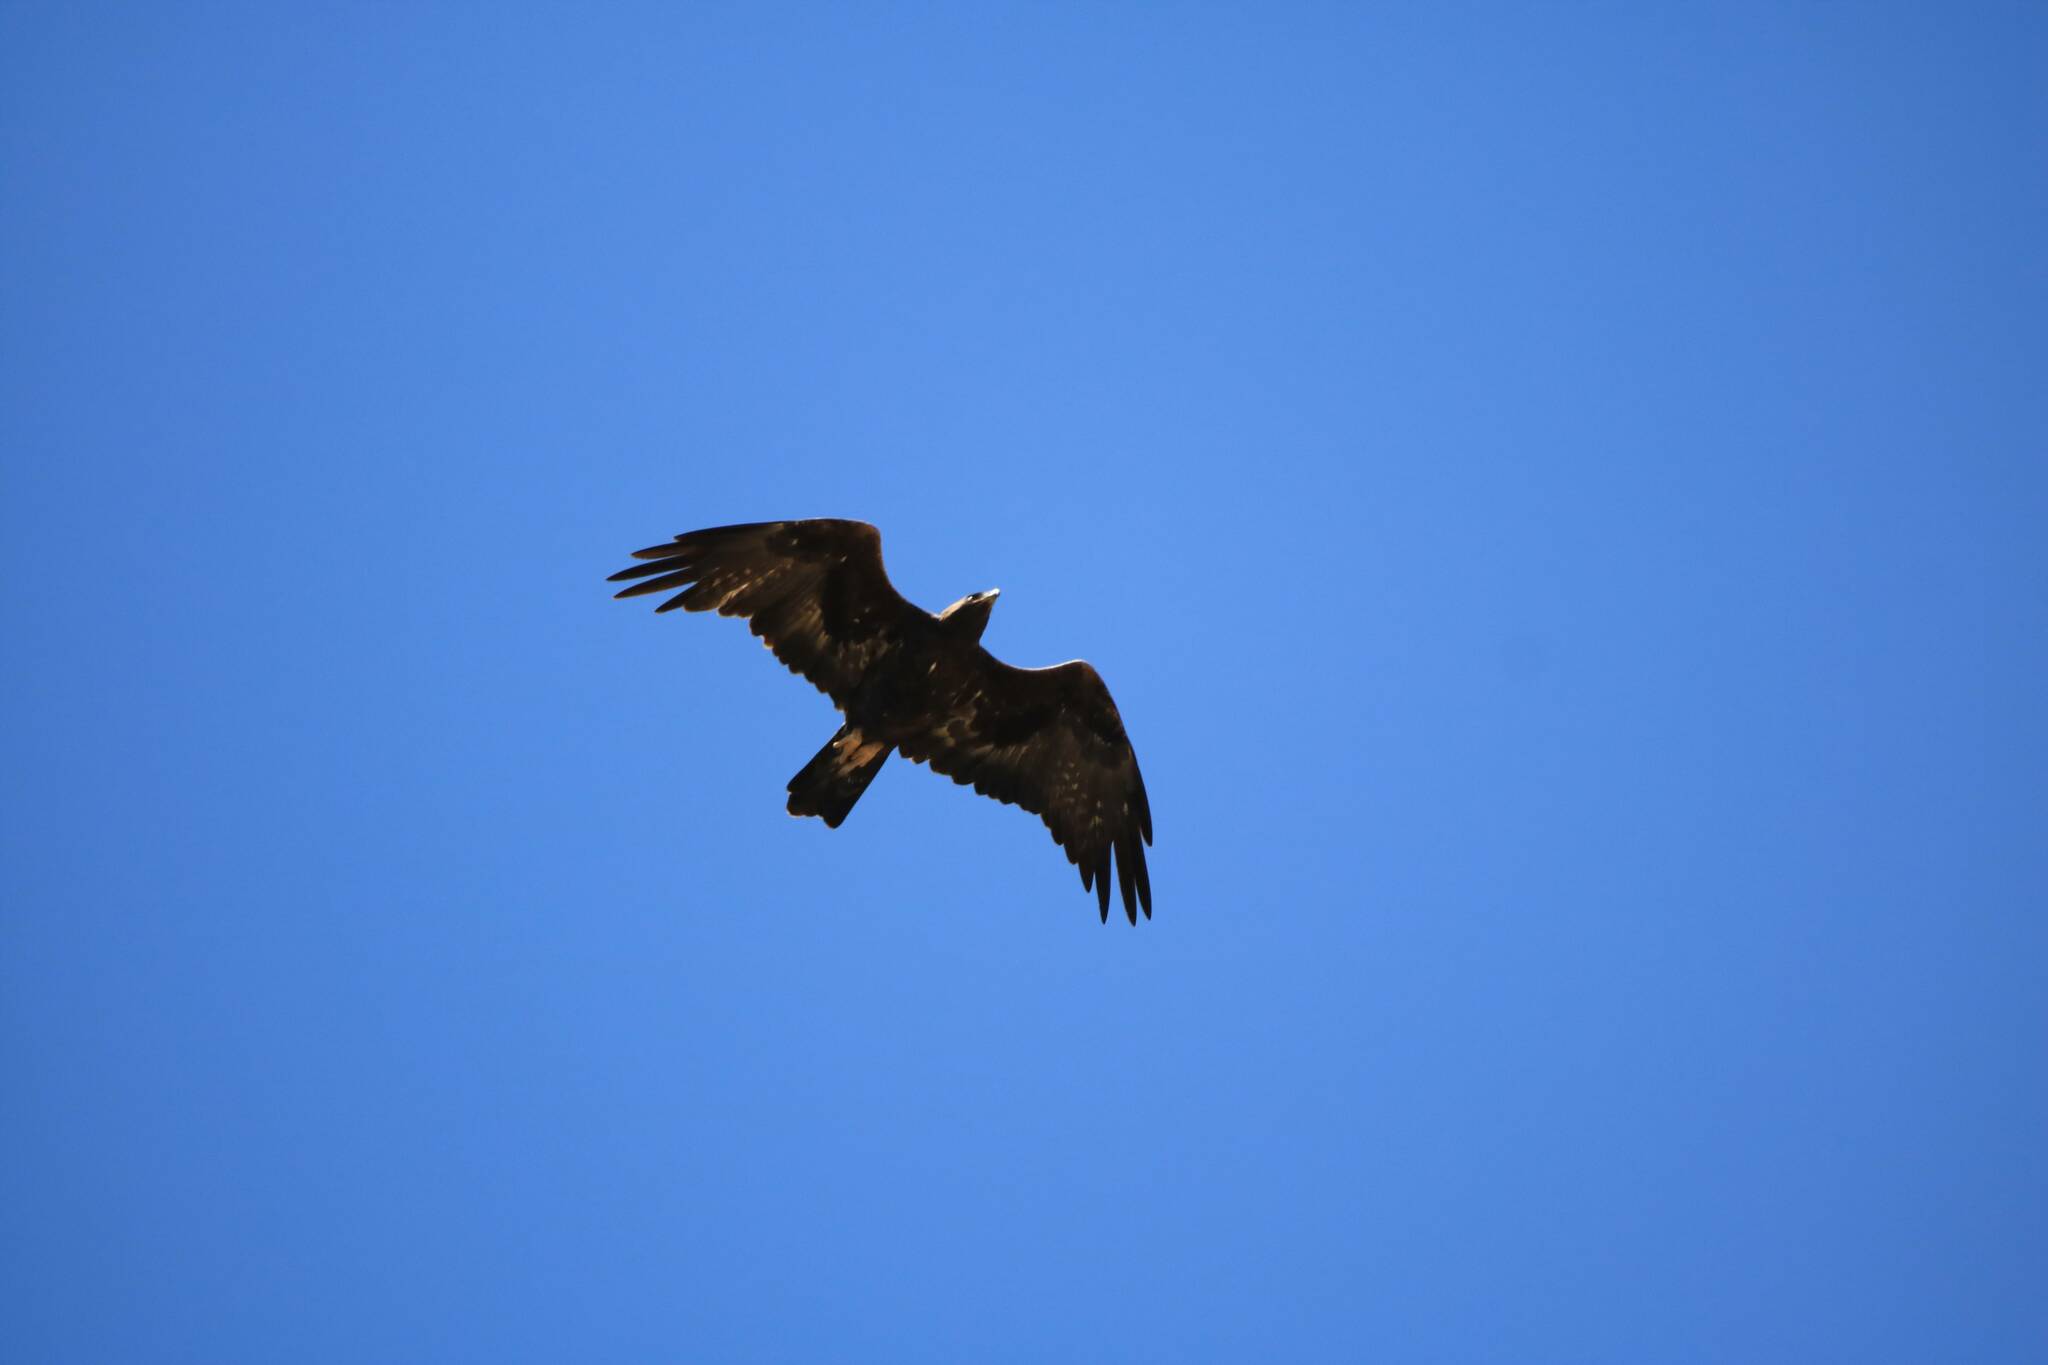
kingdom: Animalia
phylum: Chordata
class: Aves
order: Accipitriformes
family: Accipitridae
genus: Aquila
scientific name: Aquila chrysaetos
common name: Golden eagle
